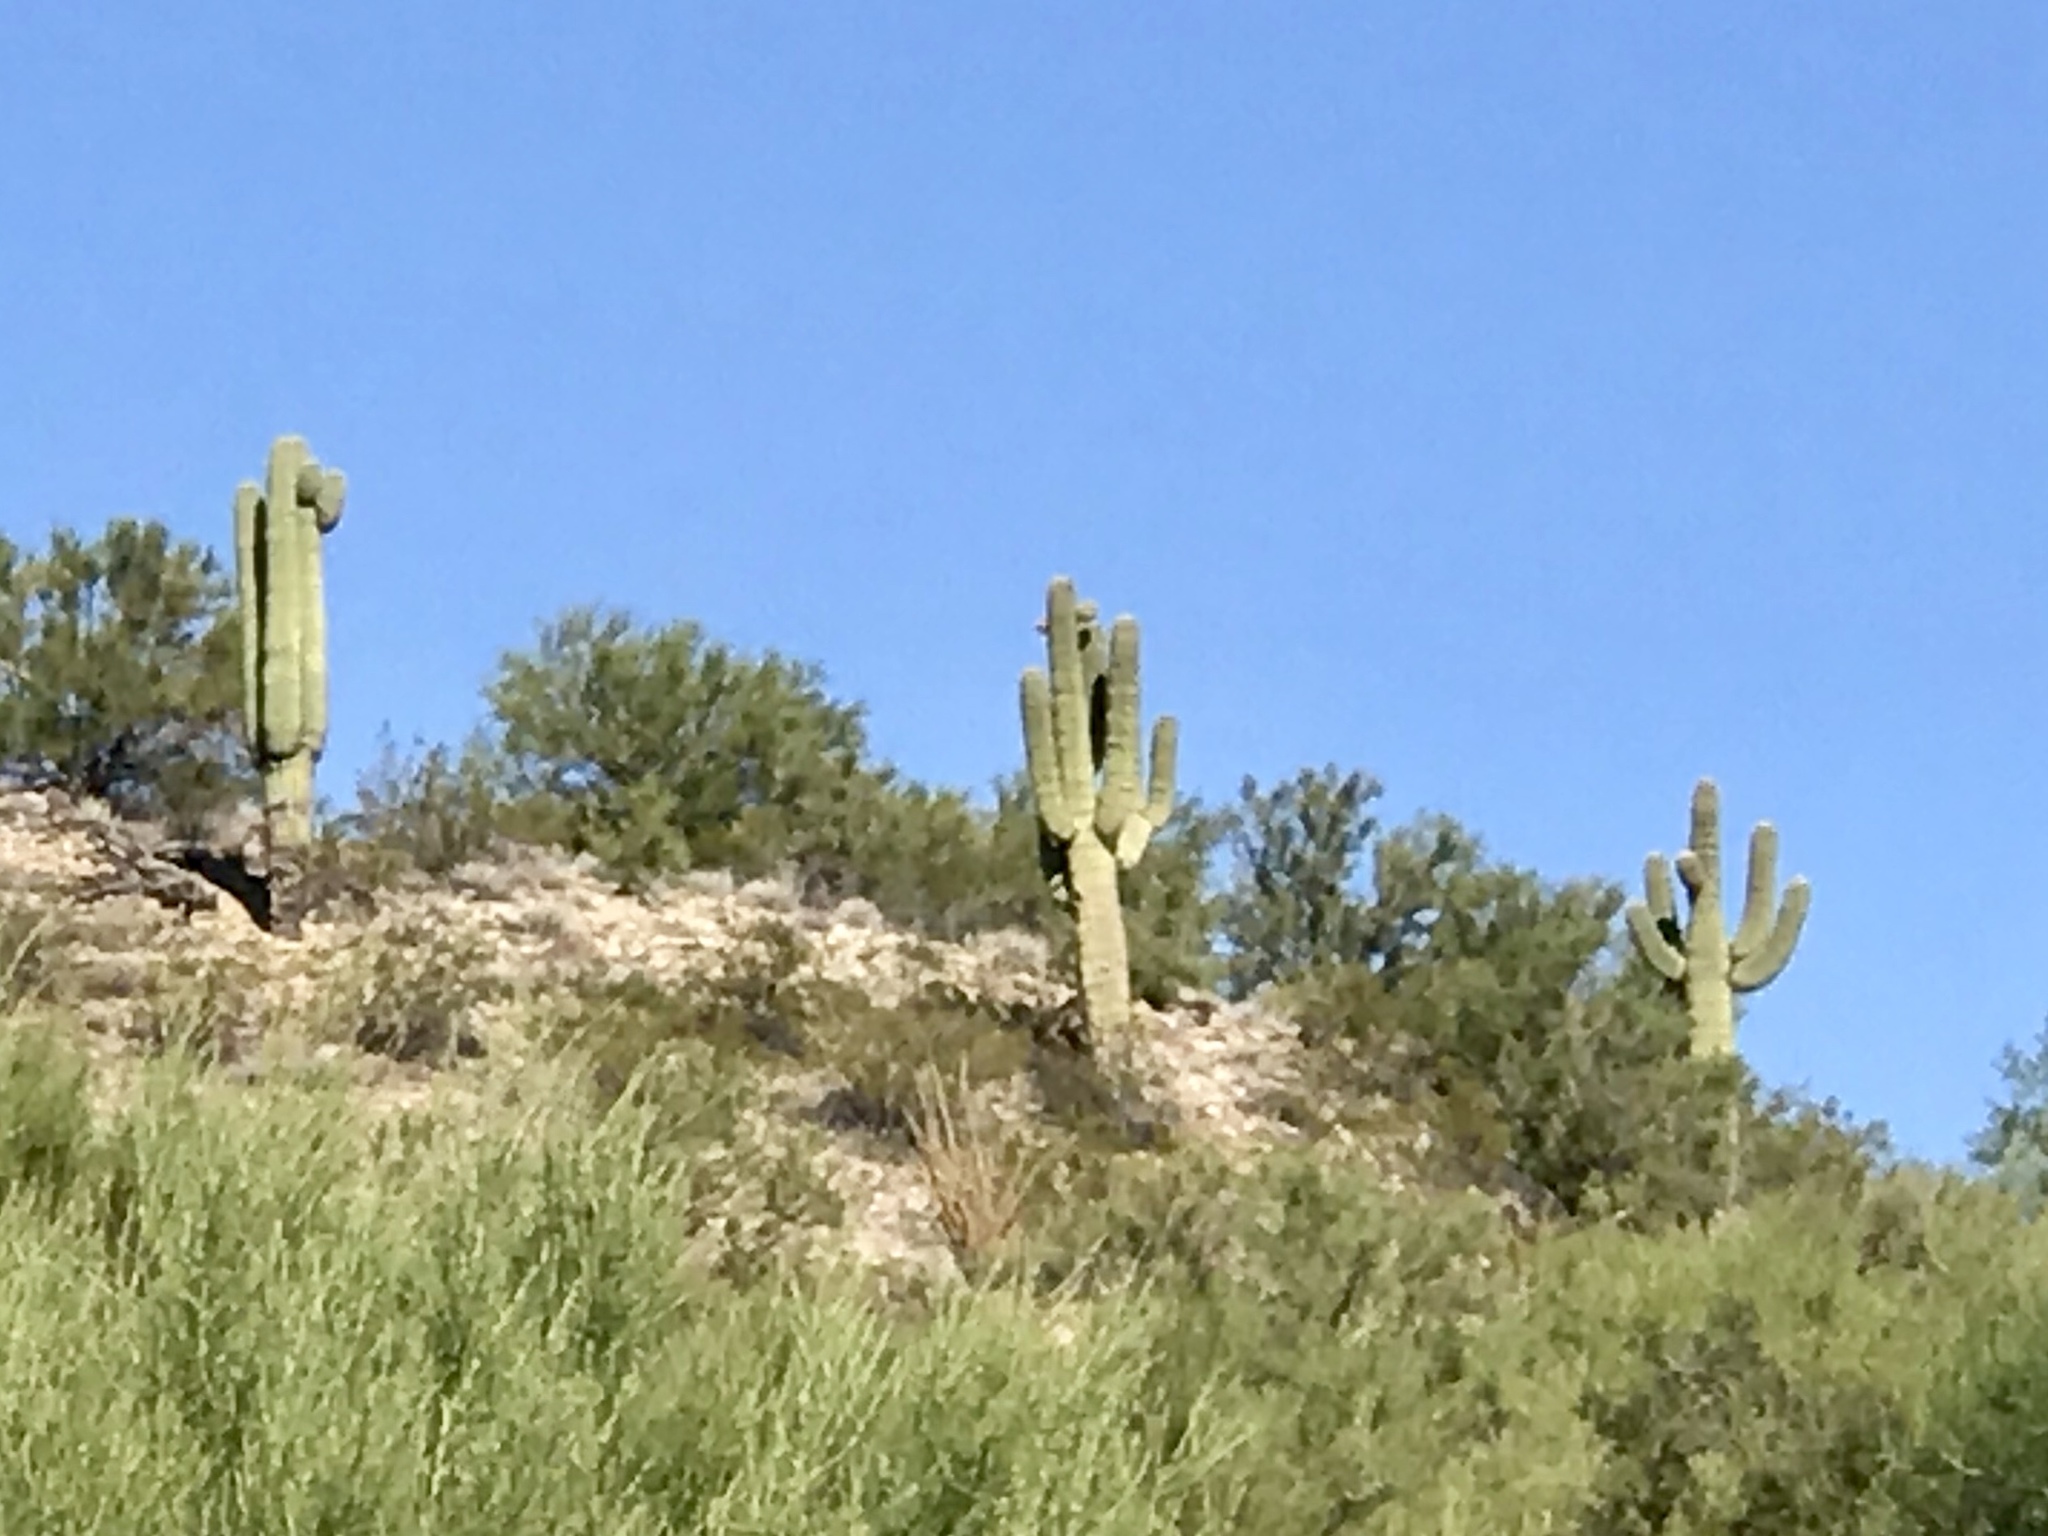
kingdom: Plantae
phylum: Tracheophyta
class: Magnoliopsida
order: Caryophyllales
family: Cactaceae
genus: Carnegiea
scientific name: Carnegiea gigantea
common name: Saguaro
